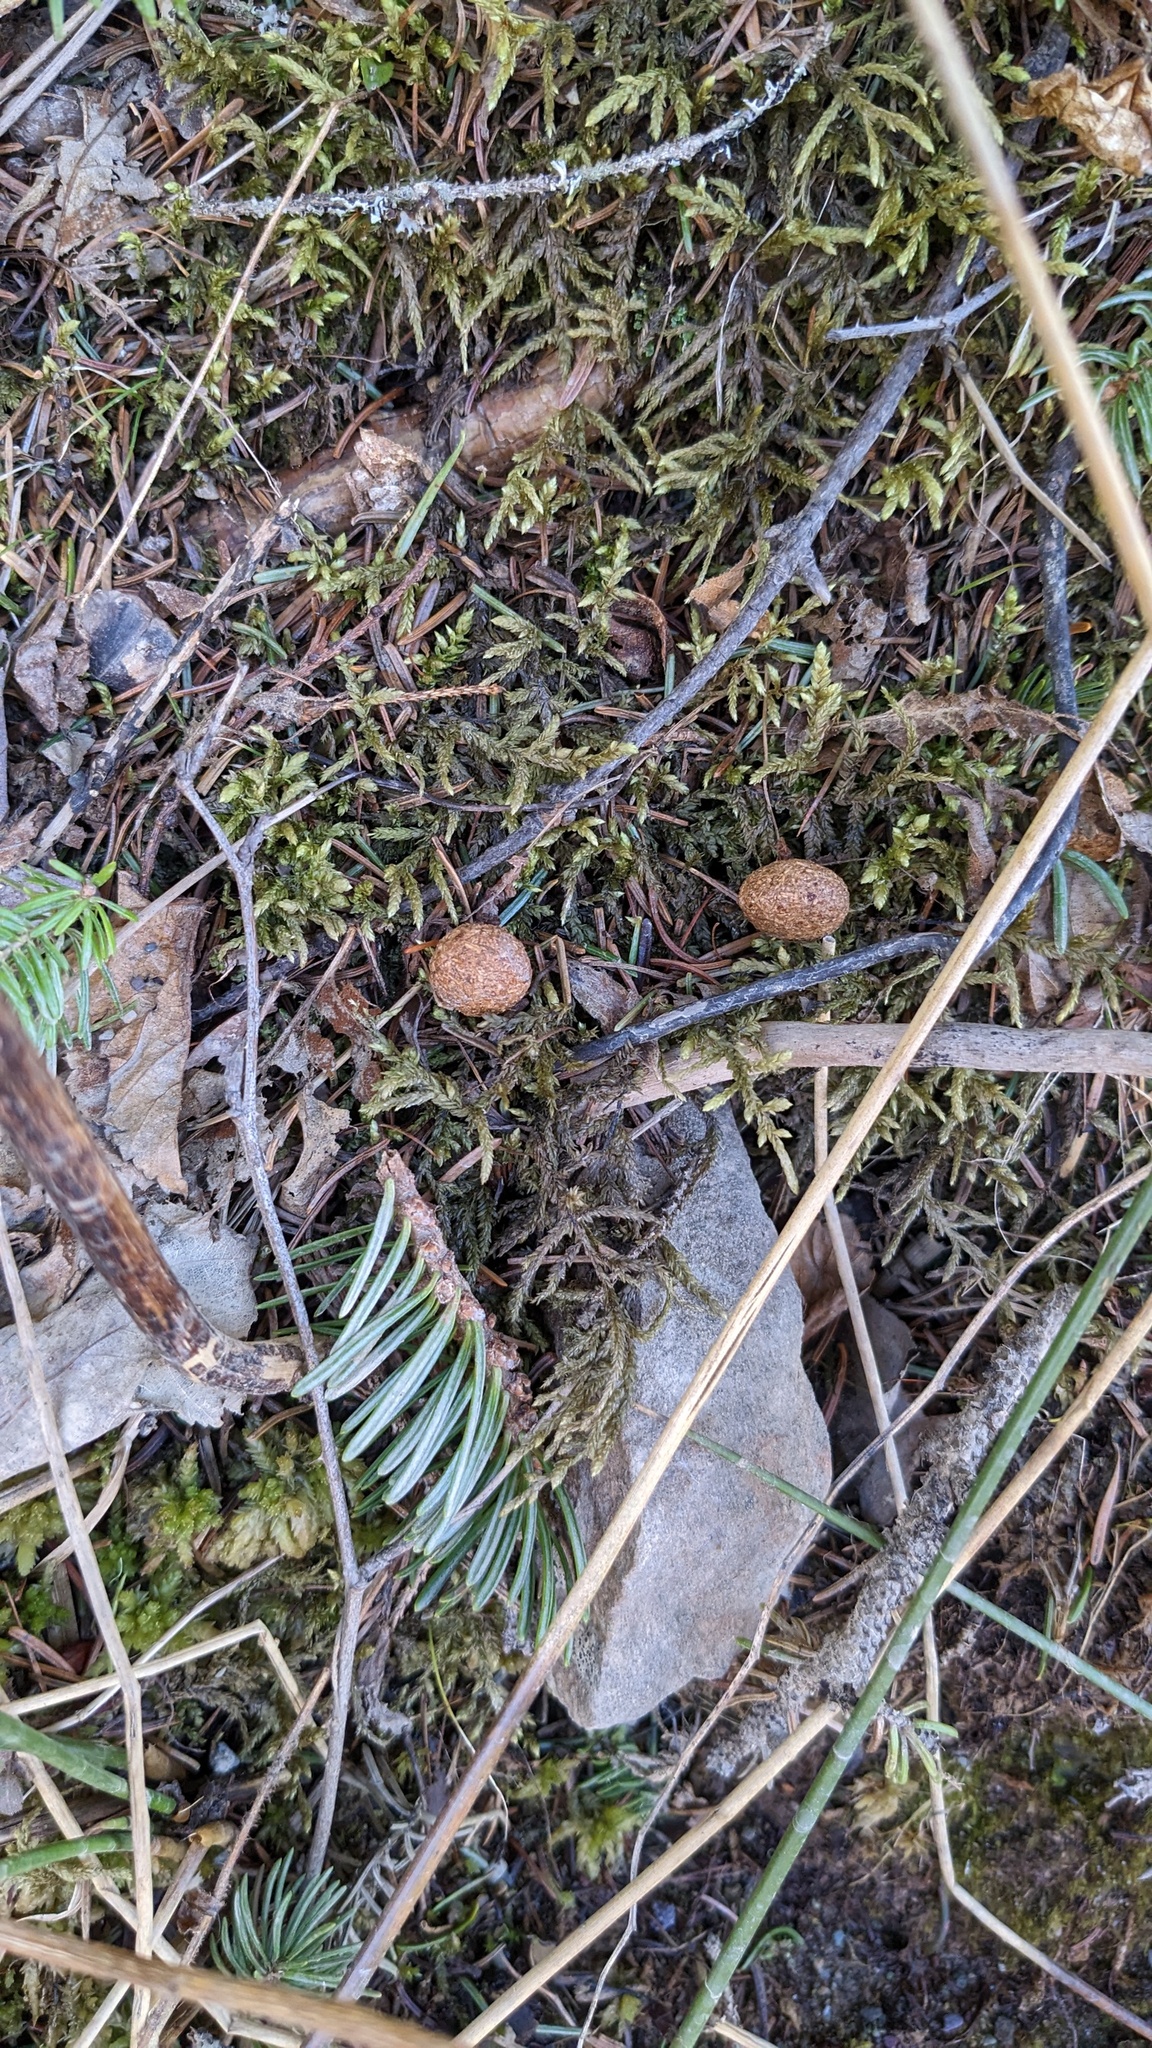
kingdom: Animalia
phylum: Chordata
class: Mammalia
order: Lagomorpha
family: Leporidae
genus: Lepus
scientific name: Lepus americanus
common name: Snowshoe hare
